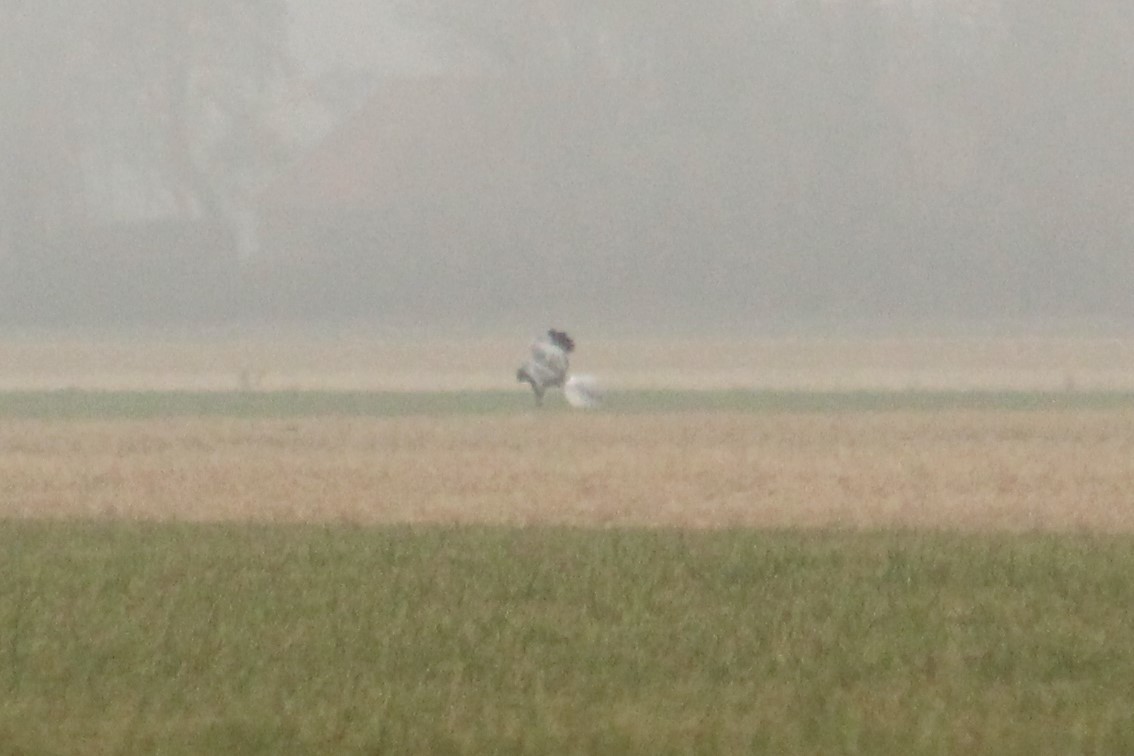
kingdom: Animalia
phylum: Chordata
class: Aves
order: Accipitriformes
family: Accipitridae
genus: Circus
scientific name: Circus cyaneus
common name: Hen harrier
